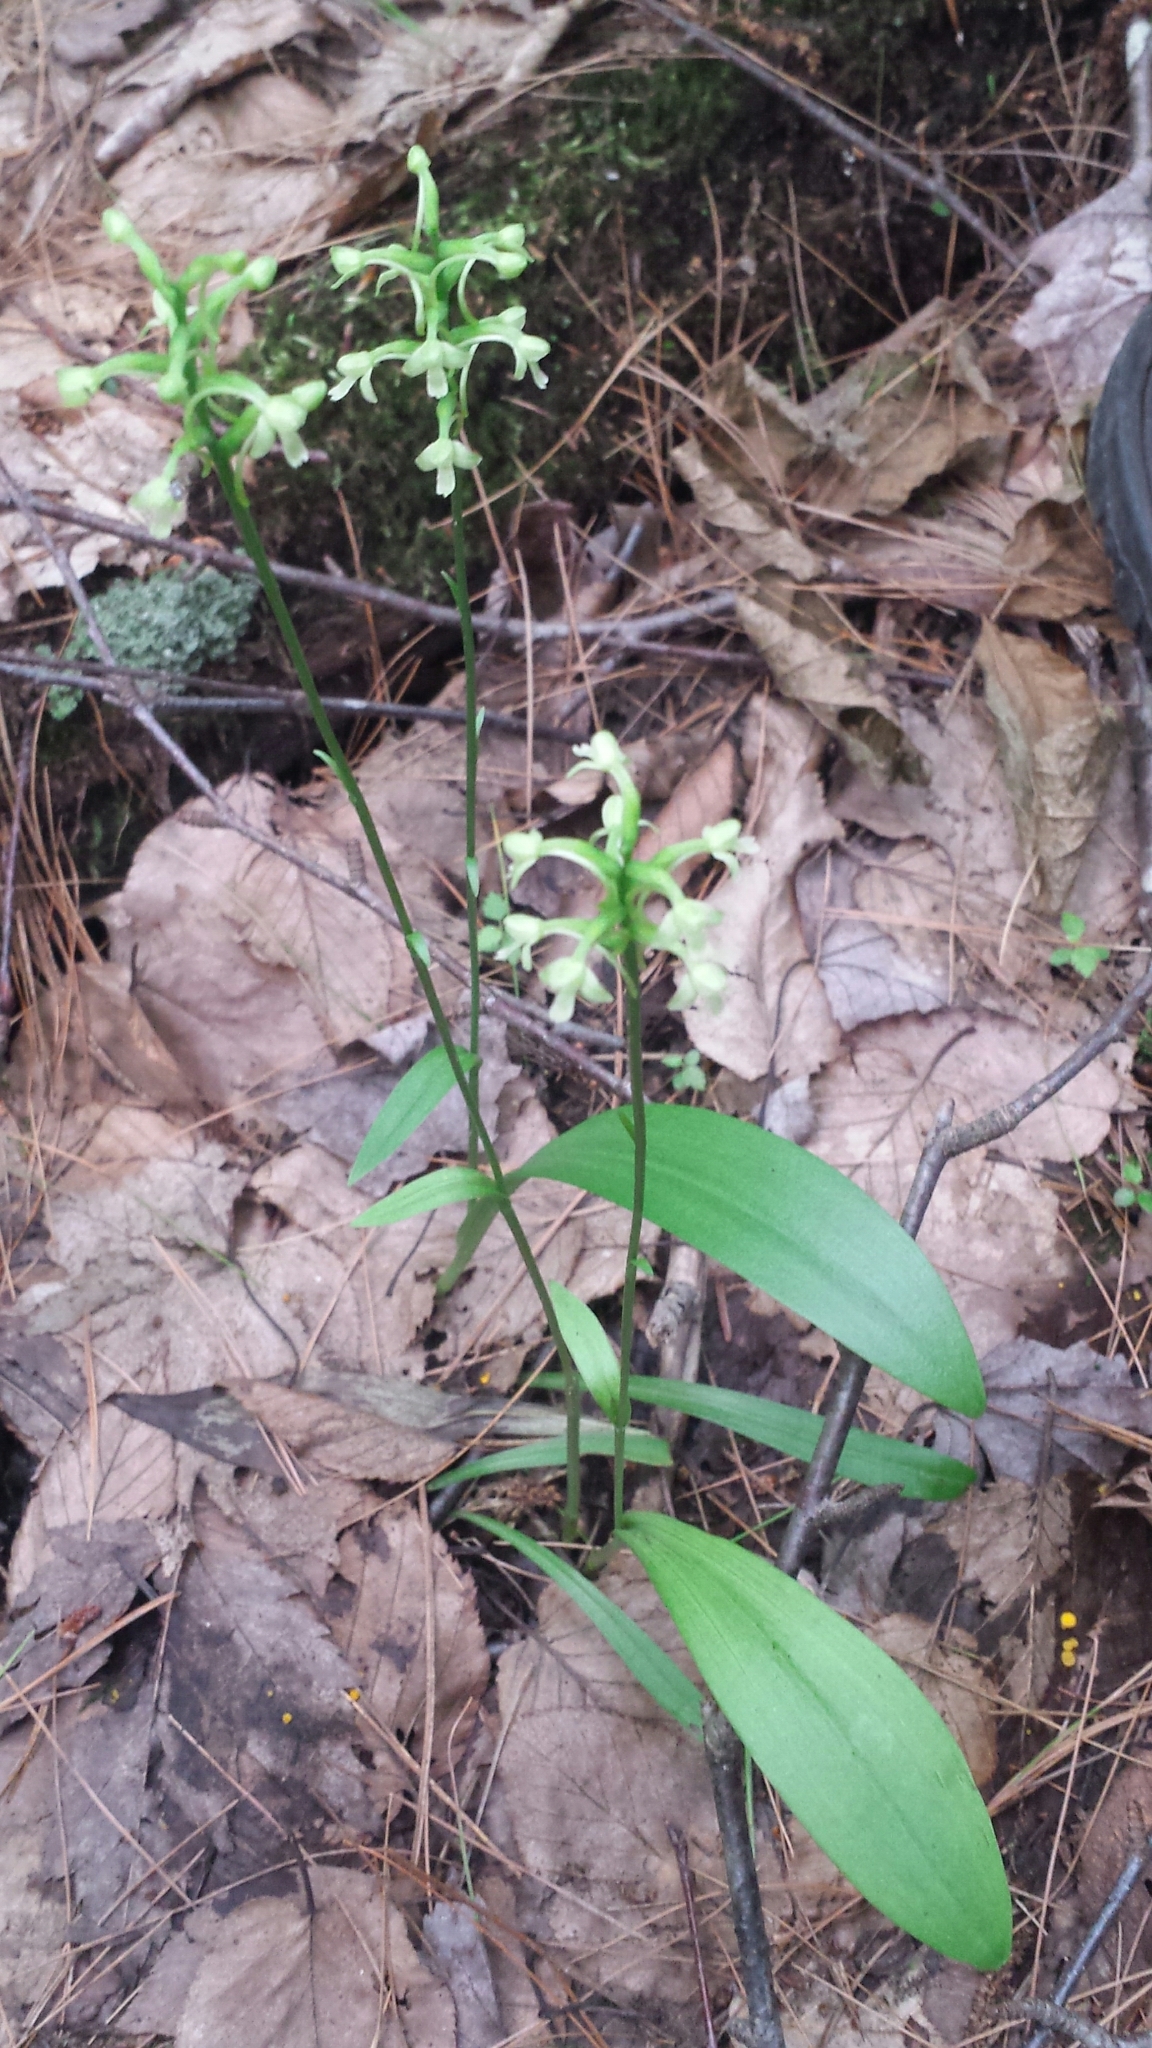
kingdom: Plantae
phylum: Tracheophyta
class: Liliopsida
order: Asparagales
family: Orchidaceae
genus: Platanthera
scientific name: Platanthera clavellata
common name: Club-spur orchid
